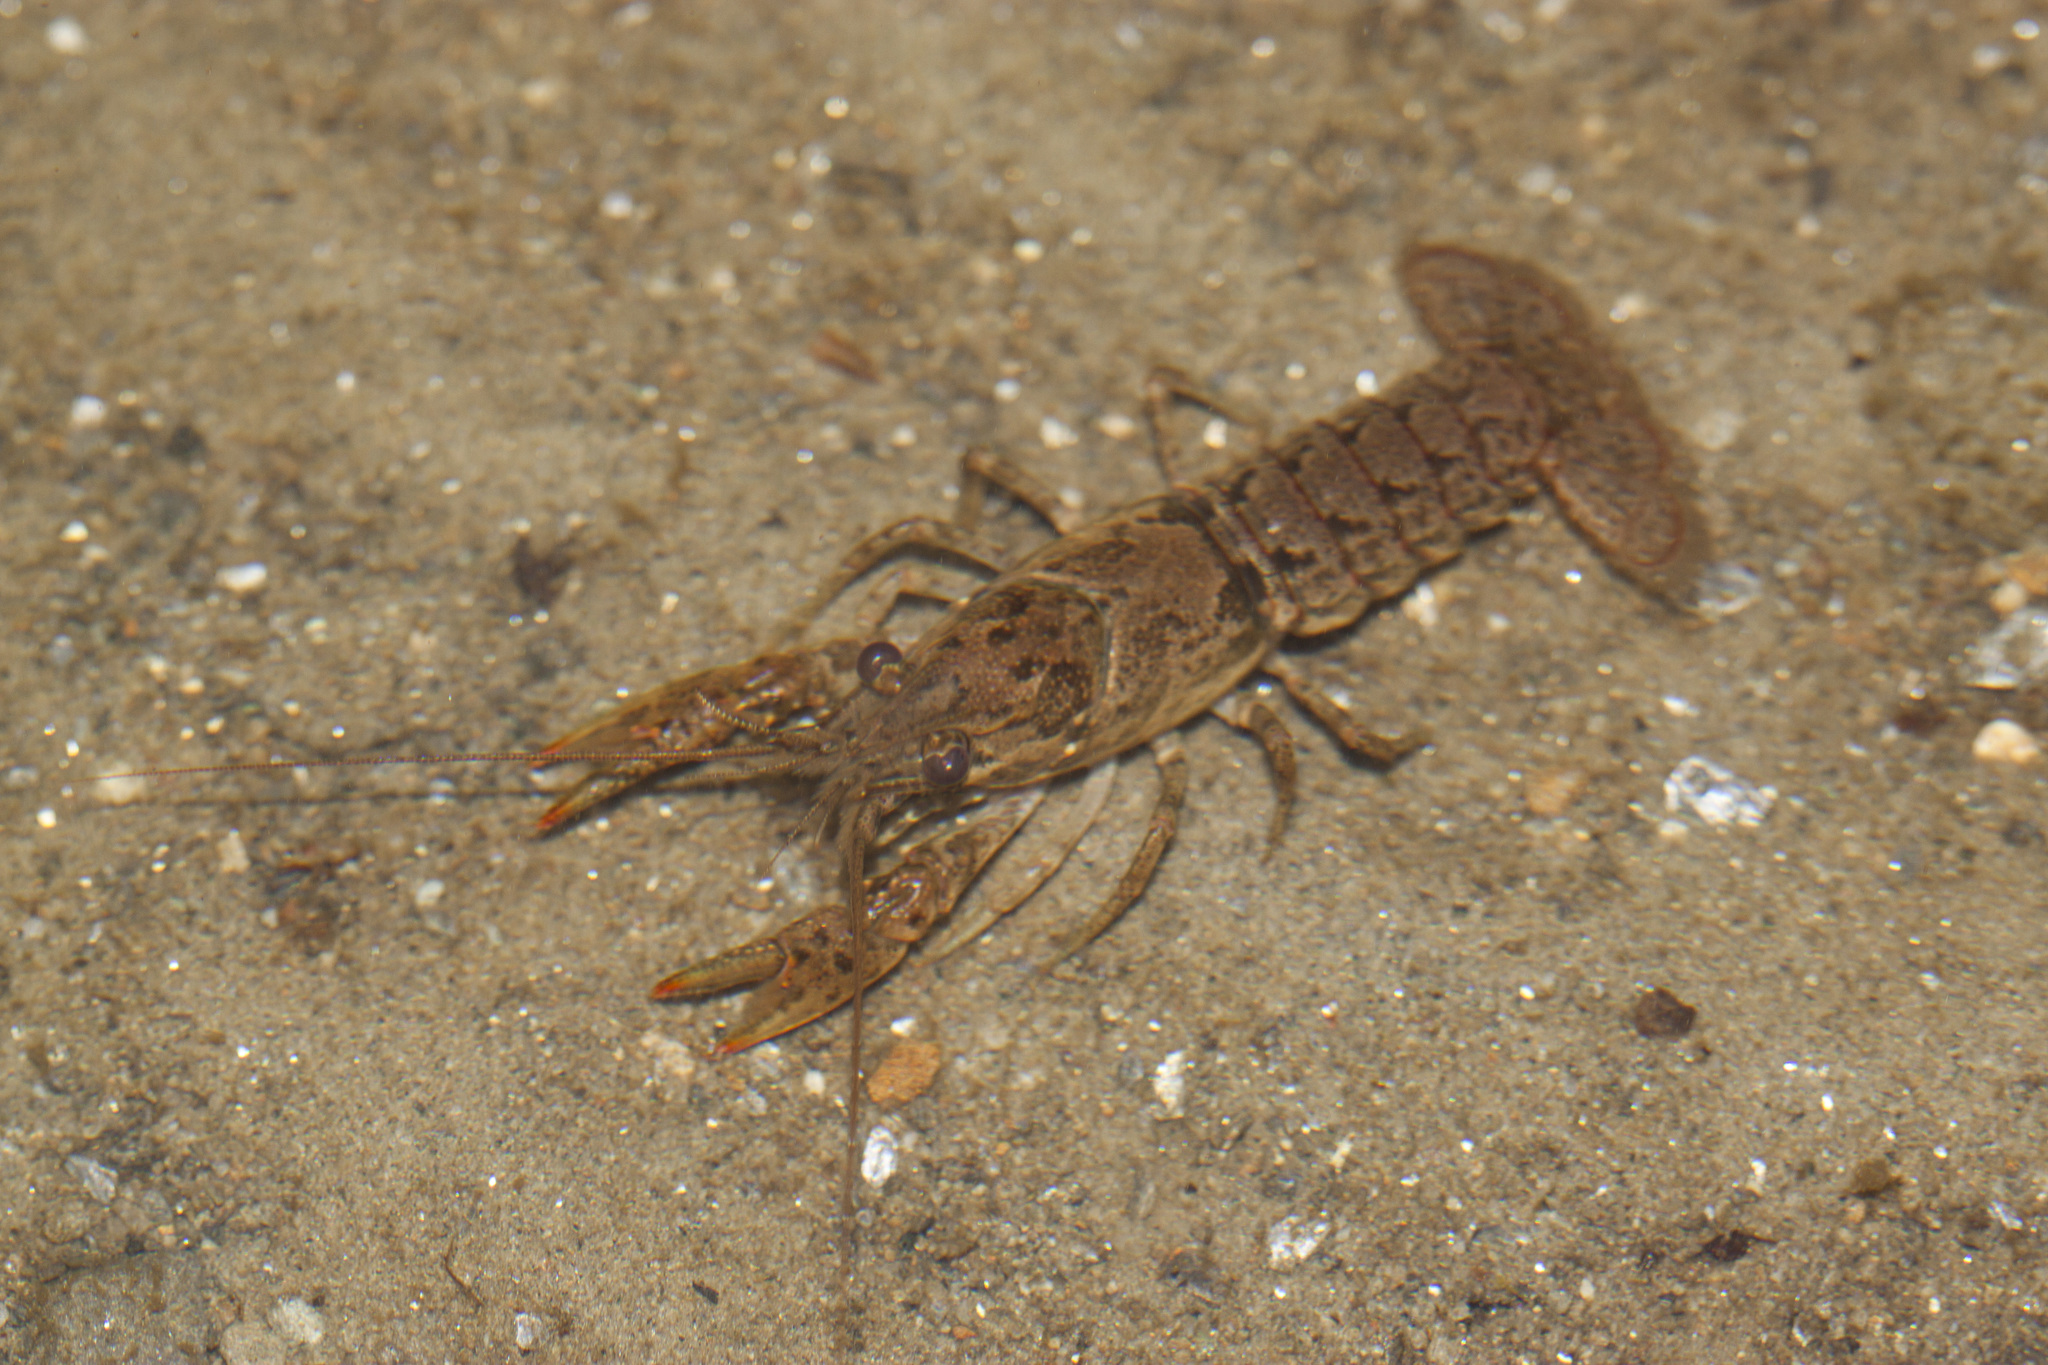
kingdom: Animalia
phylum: Arthropoda
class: Malacostraca
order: Decapoda
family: Cambaridae
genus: Faxonius
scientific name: Faxonius virilis
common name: Virile crayfish
